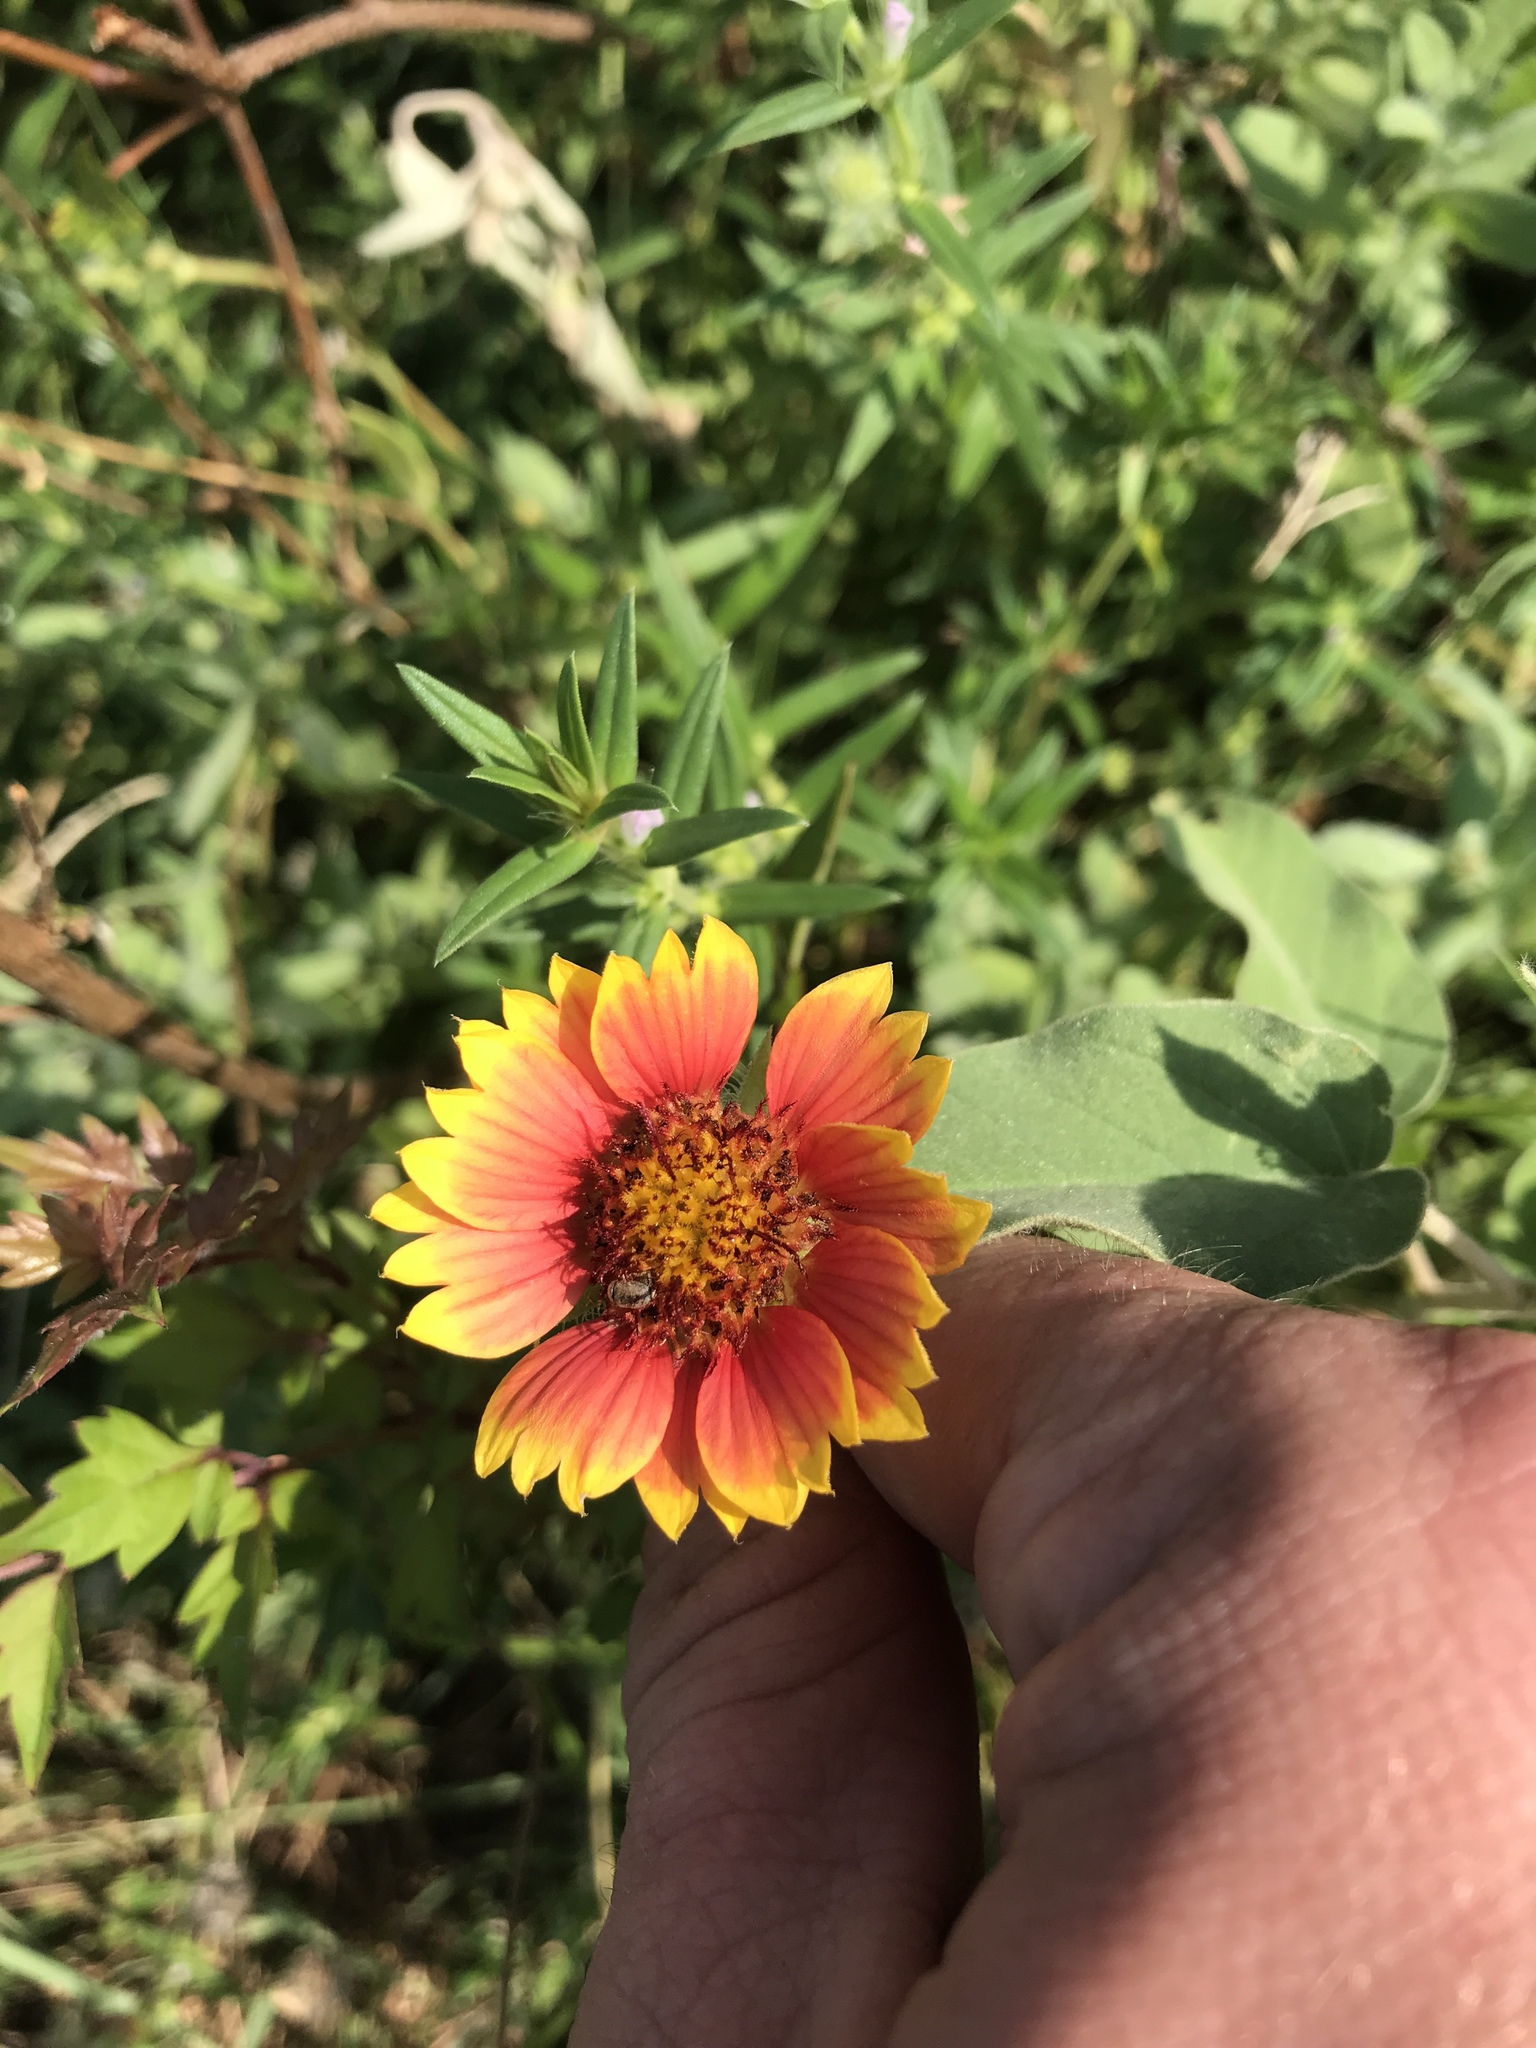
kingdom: Plantae
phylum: Tracheophyta
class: Magnoliopsida
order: Asterales
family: Asteraceae
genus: Gaillardia
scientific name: Gaillardia pulchella
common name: Firewheel
